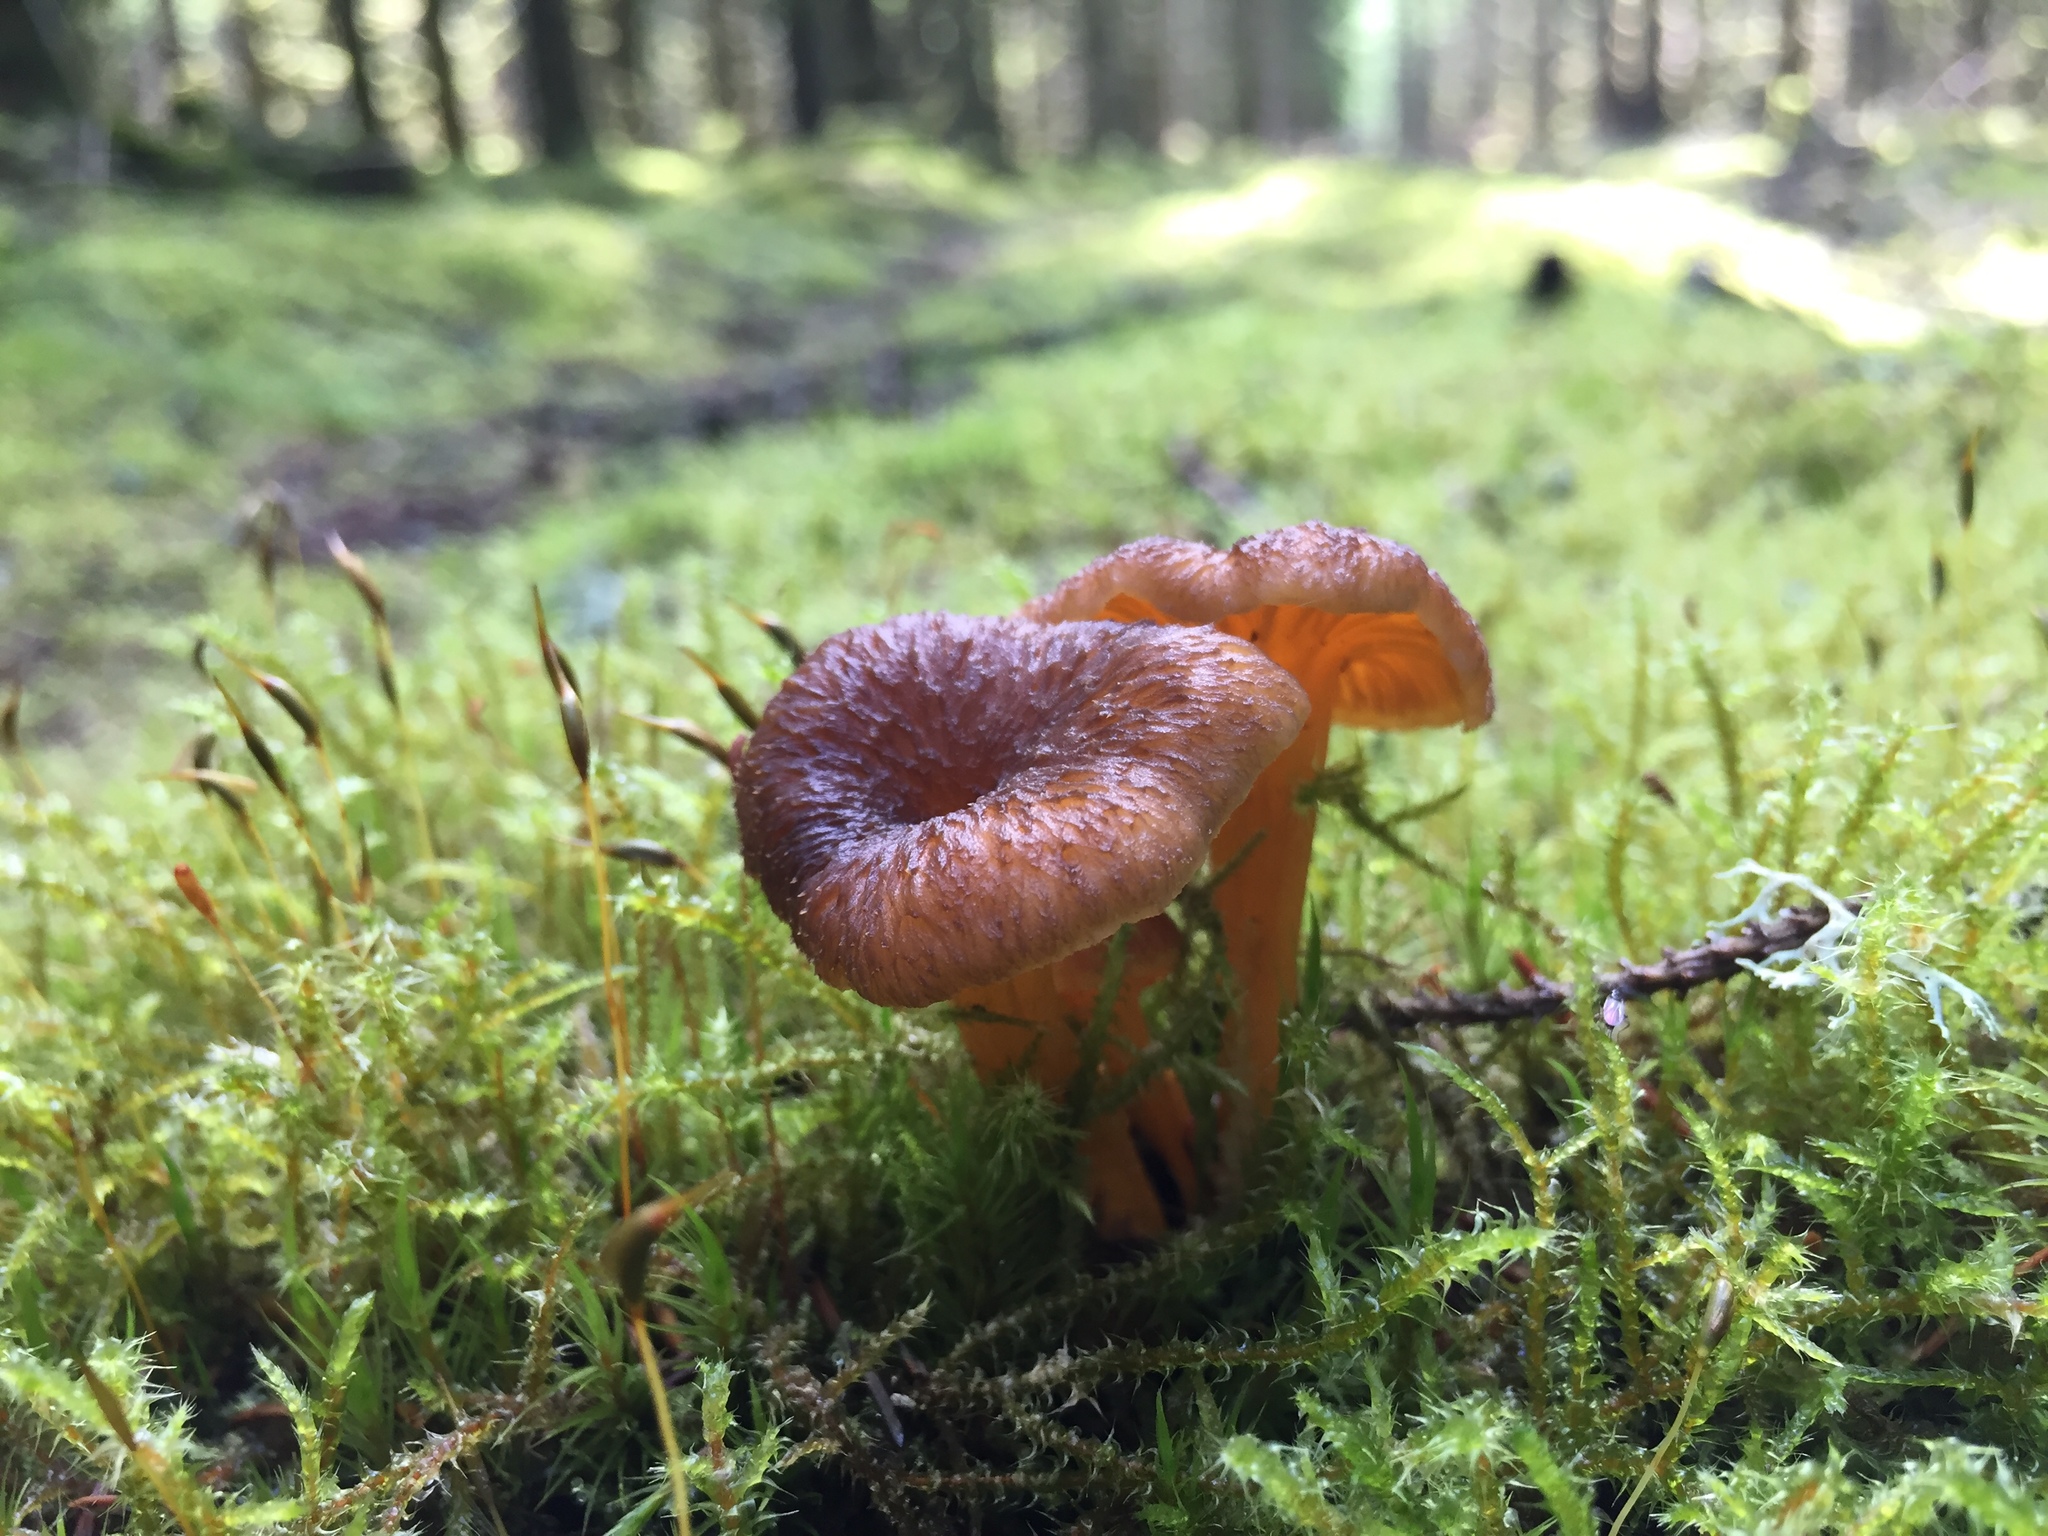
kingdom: Fungi
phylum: Basidiomycota
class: Agaricomycetes
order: Cantharellales
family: Hydnaceae
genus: Craterellus
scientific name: Craterellus tubaeformis
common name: Yellowfoot
